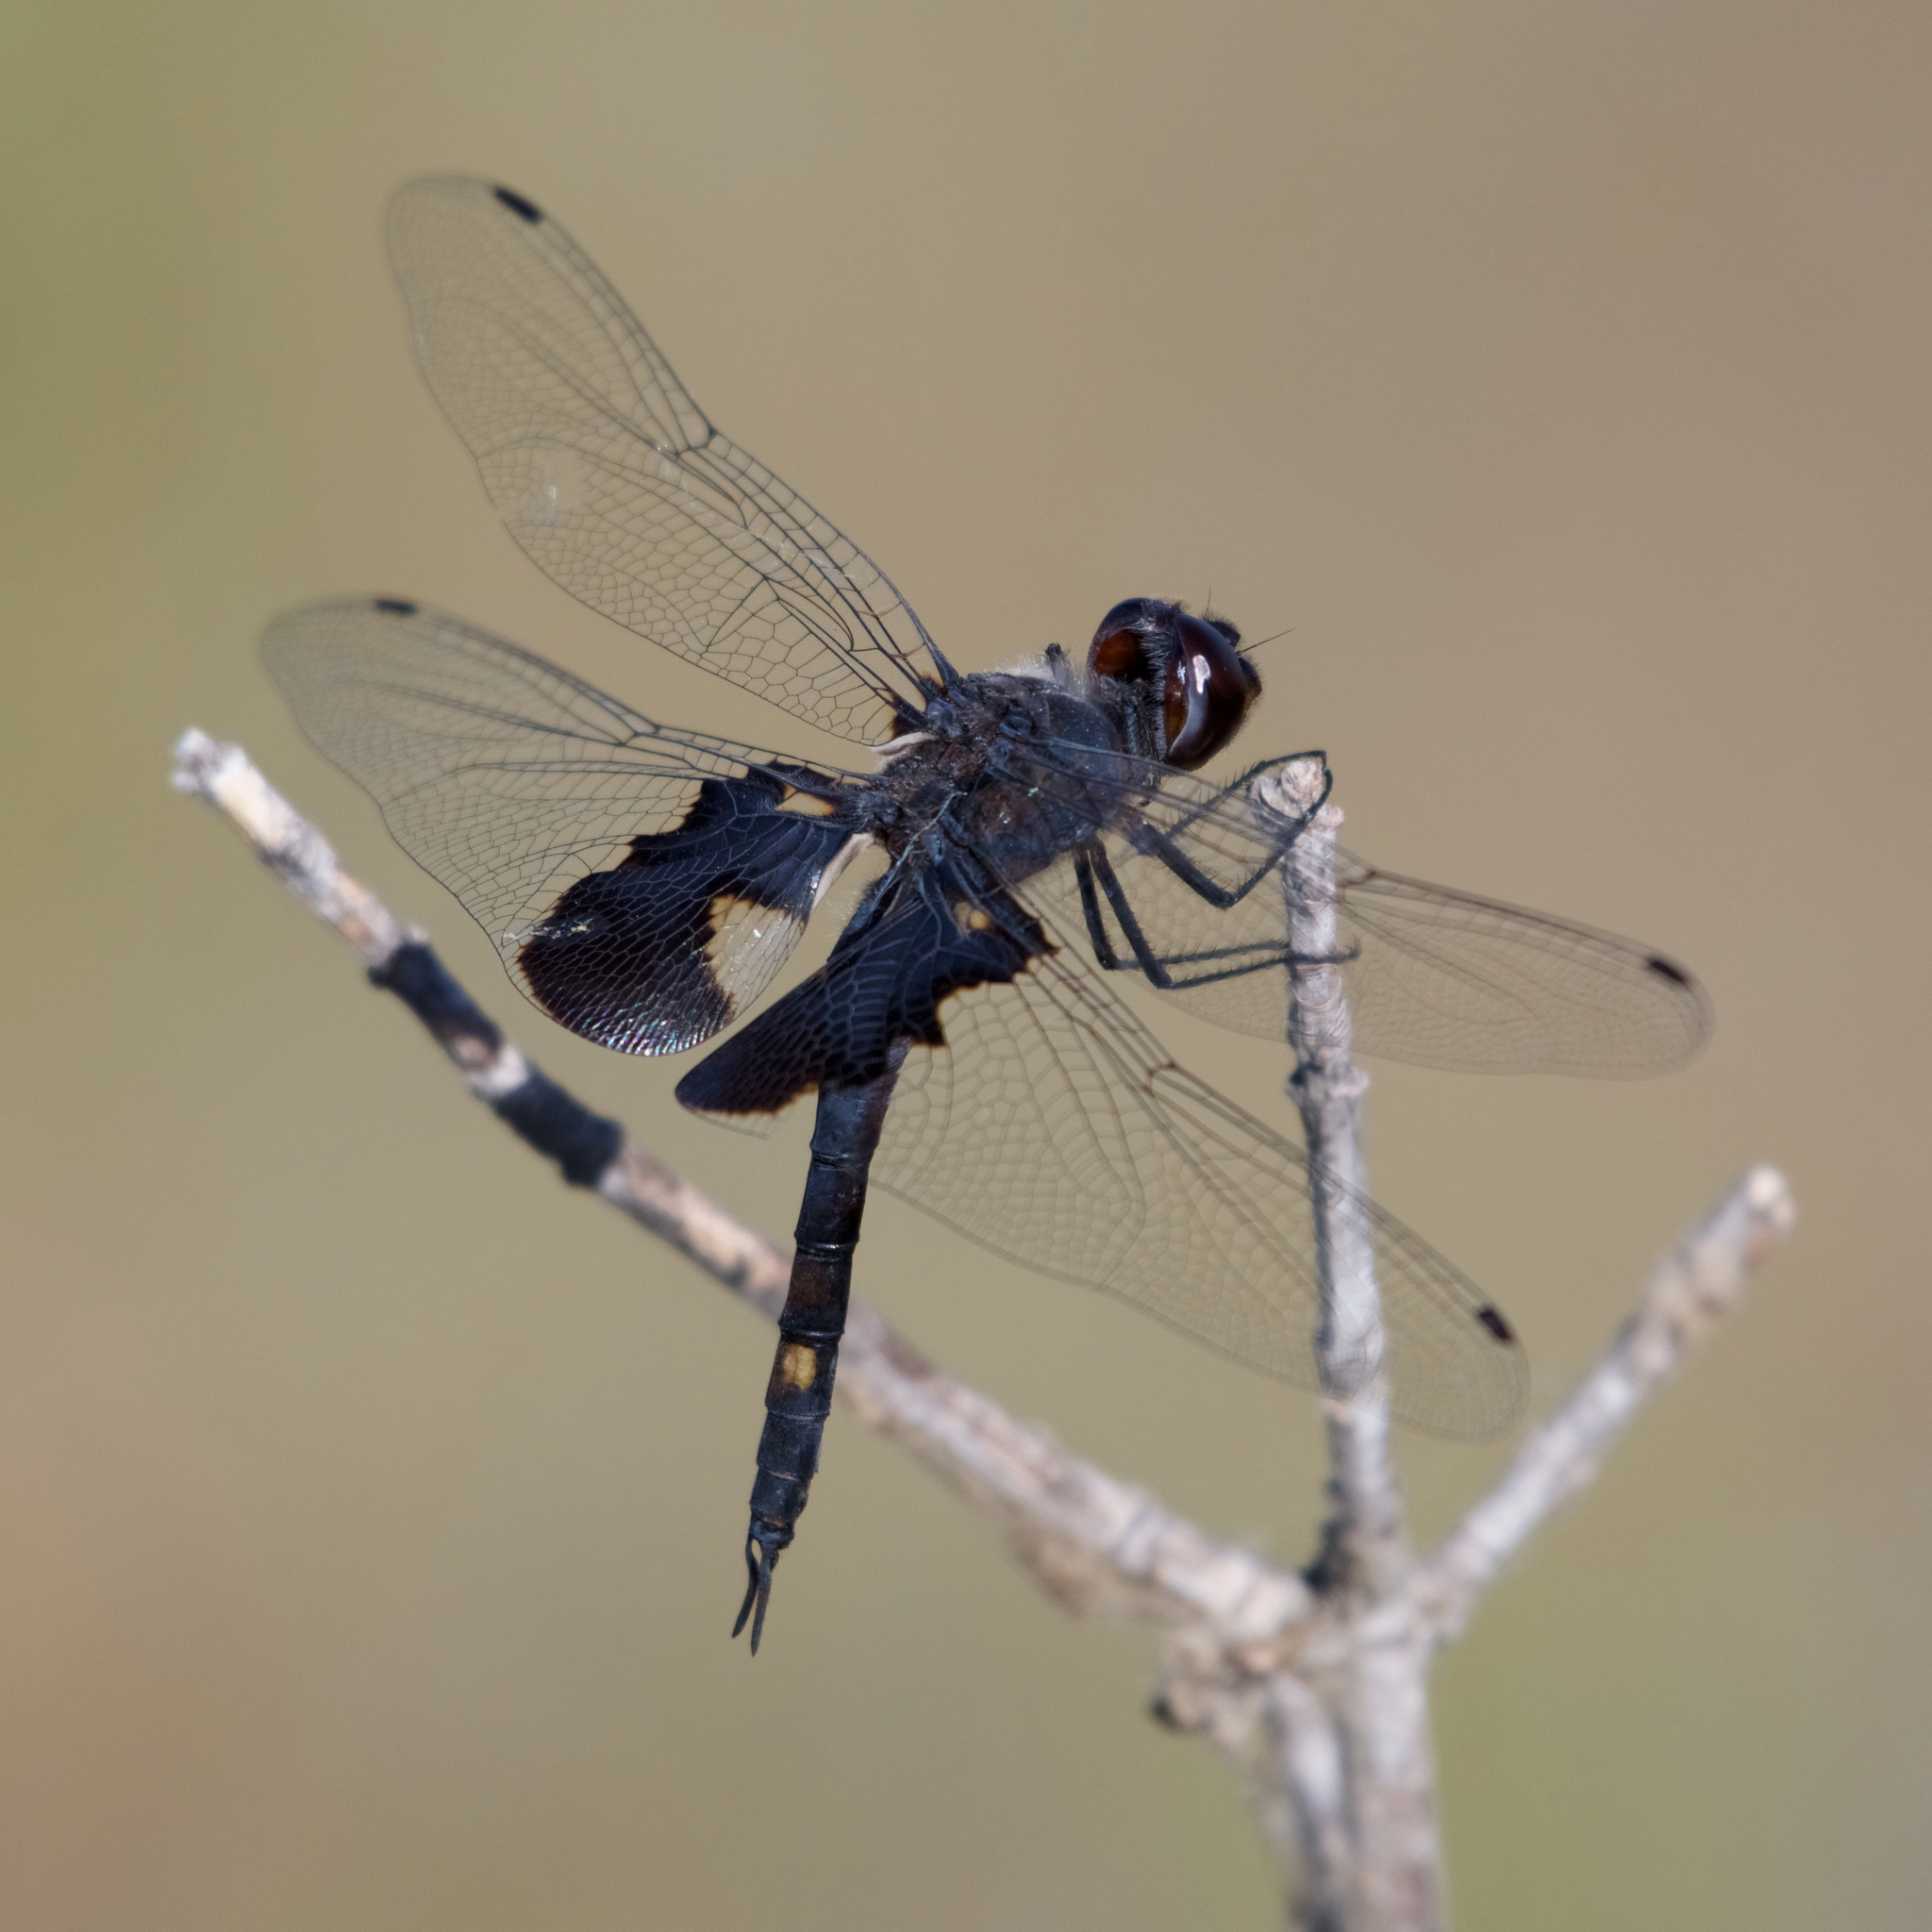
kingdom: Animalia
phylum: Arthropoda
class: Insecta
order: Odonata
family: Libellulidae
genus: Tramea
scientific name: Tramea lacerata
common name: Black saddlebags
